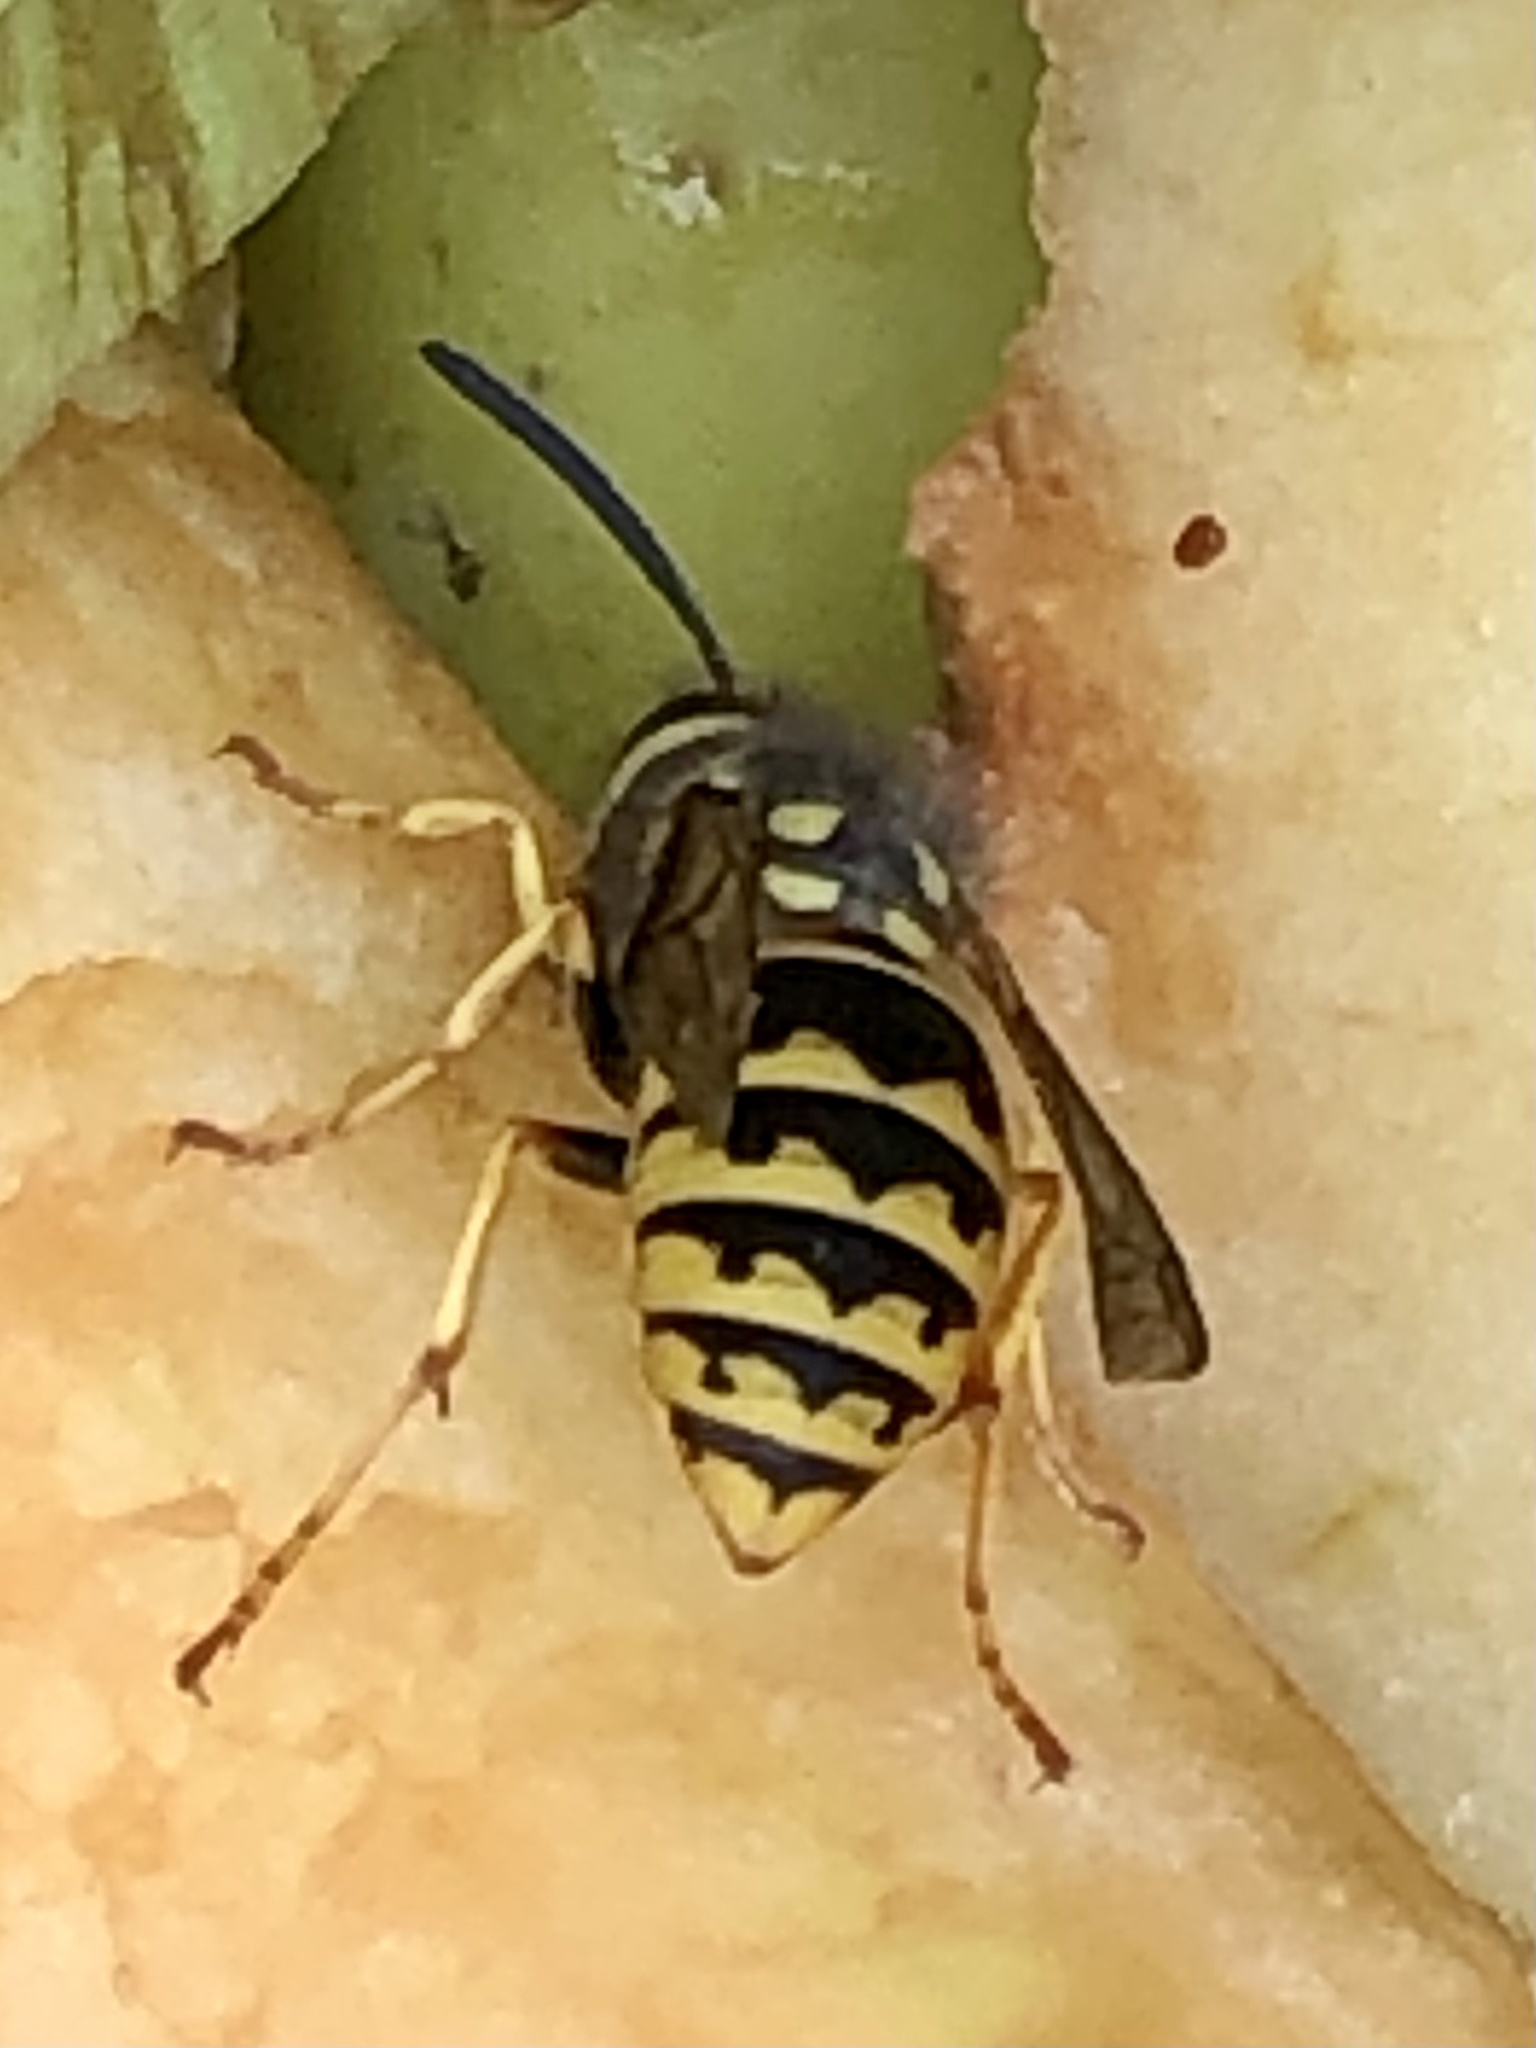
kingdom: Animalia
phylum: Arthropoda
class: Insecta
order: Hymenoptera
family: Vespidae
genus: Vespula
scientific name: Vespula germanica
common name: German wasp
